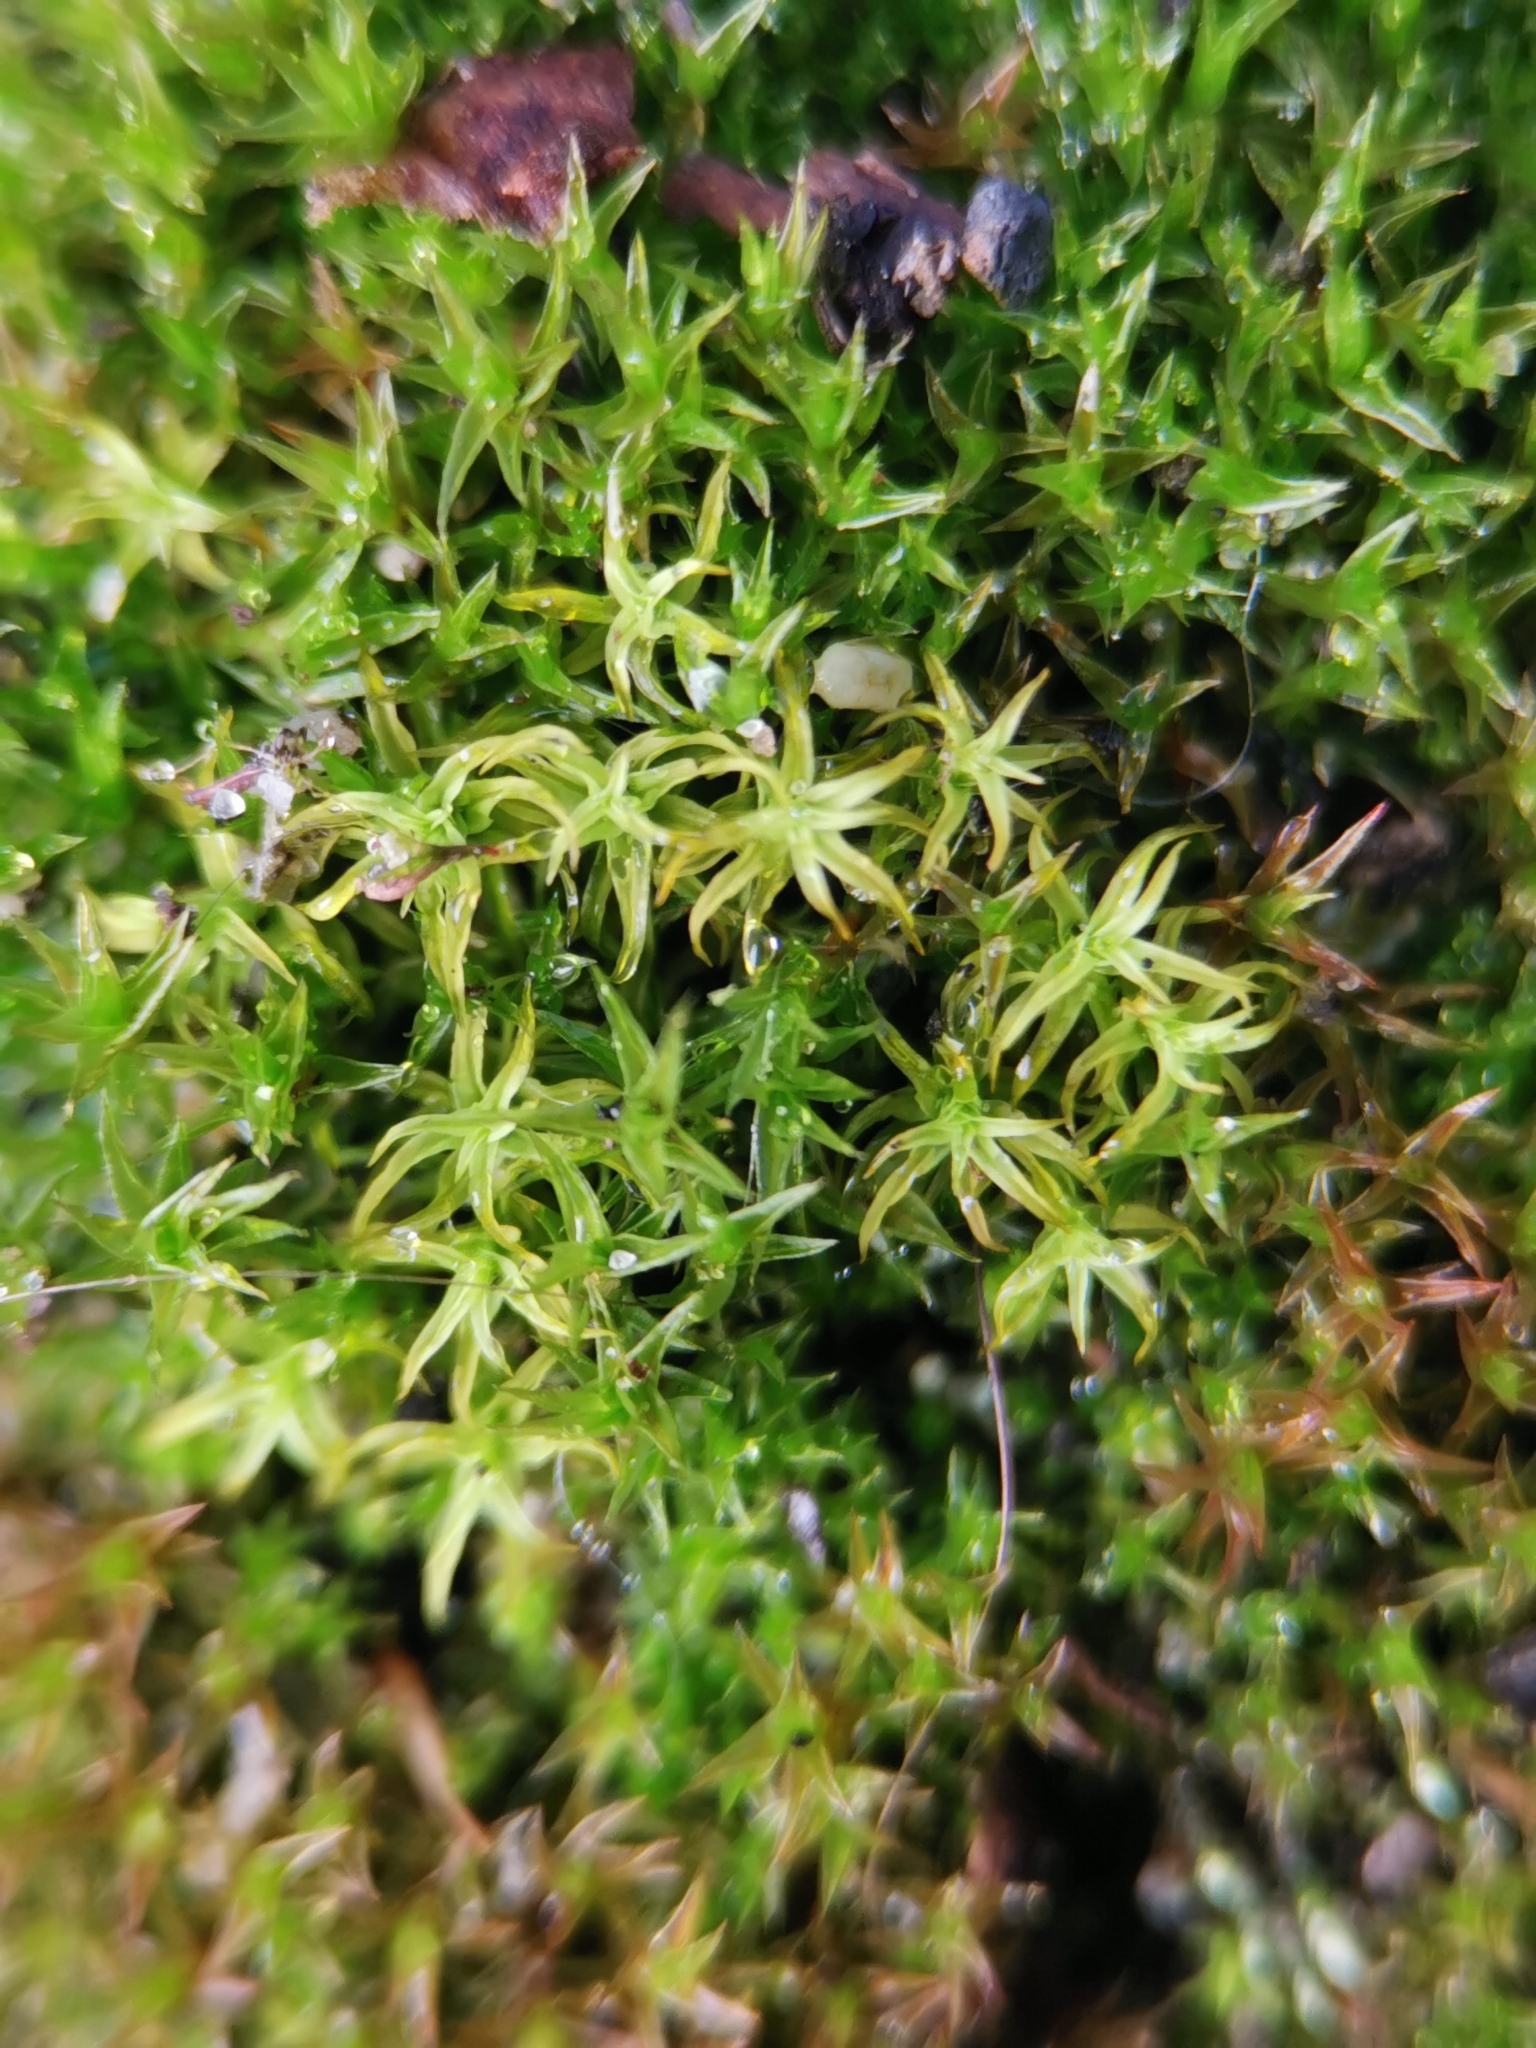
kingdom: Plantae
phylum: Bryophyta
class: Bryopsida
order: Pottiales
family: Pottiaceae
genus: Vinealobryum
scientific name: Vinealobryum insulanum
